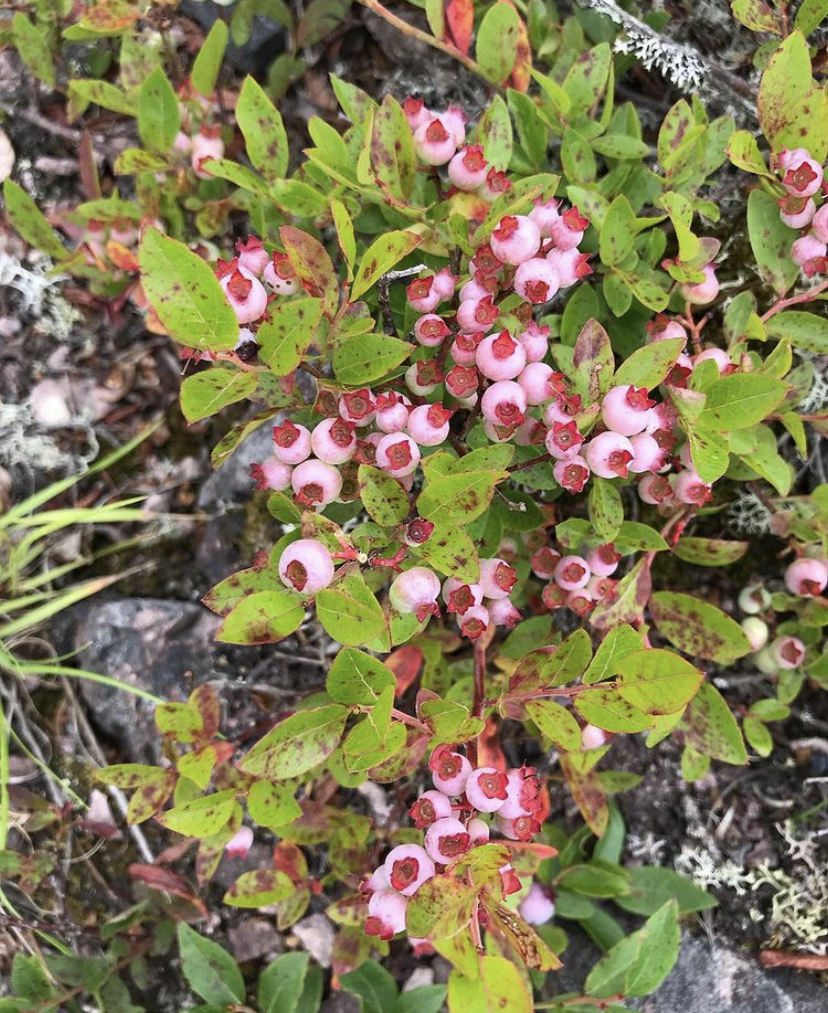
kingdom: Plantae
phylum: Tracheophyta
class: Magnoliopsida
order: Ericales
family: Ericaceae
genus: Vaccinium
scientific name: Vaccinium angustifolium
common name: Early lowbush blueberry
